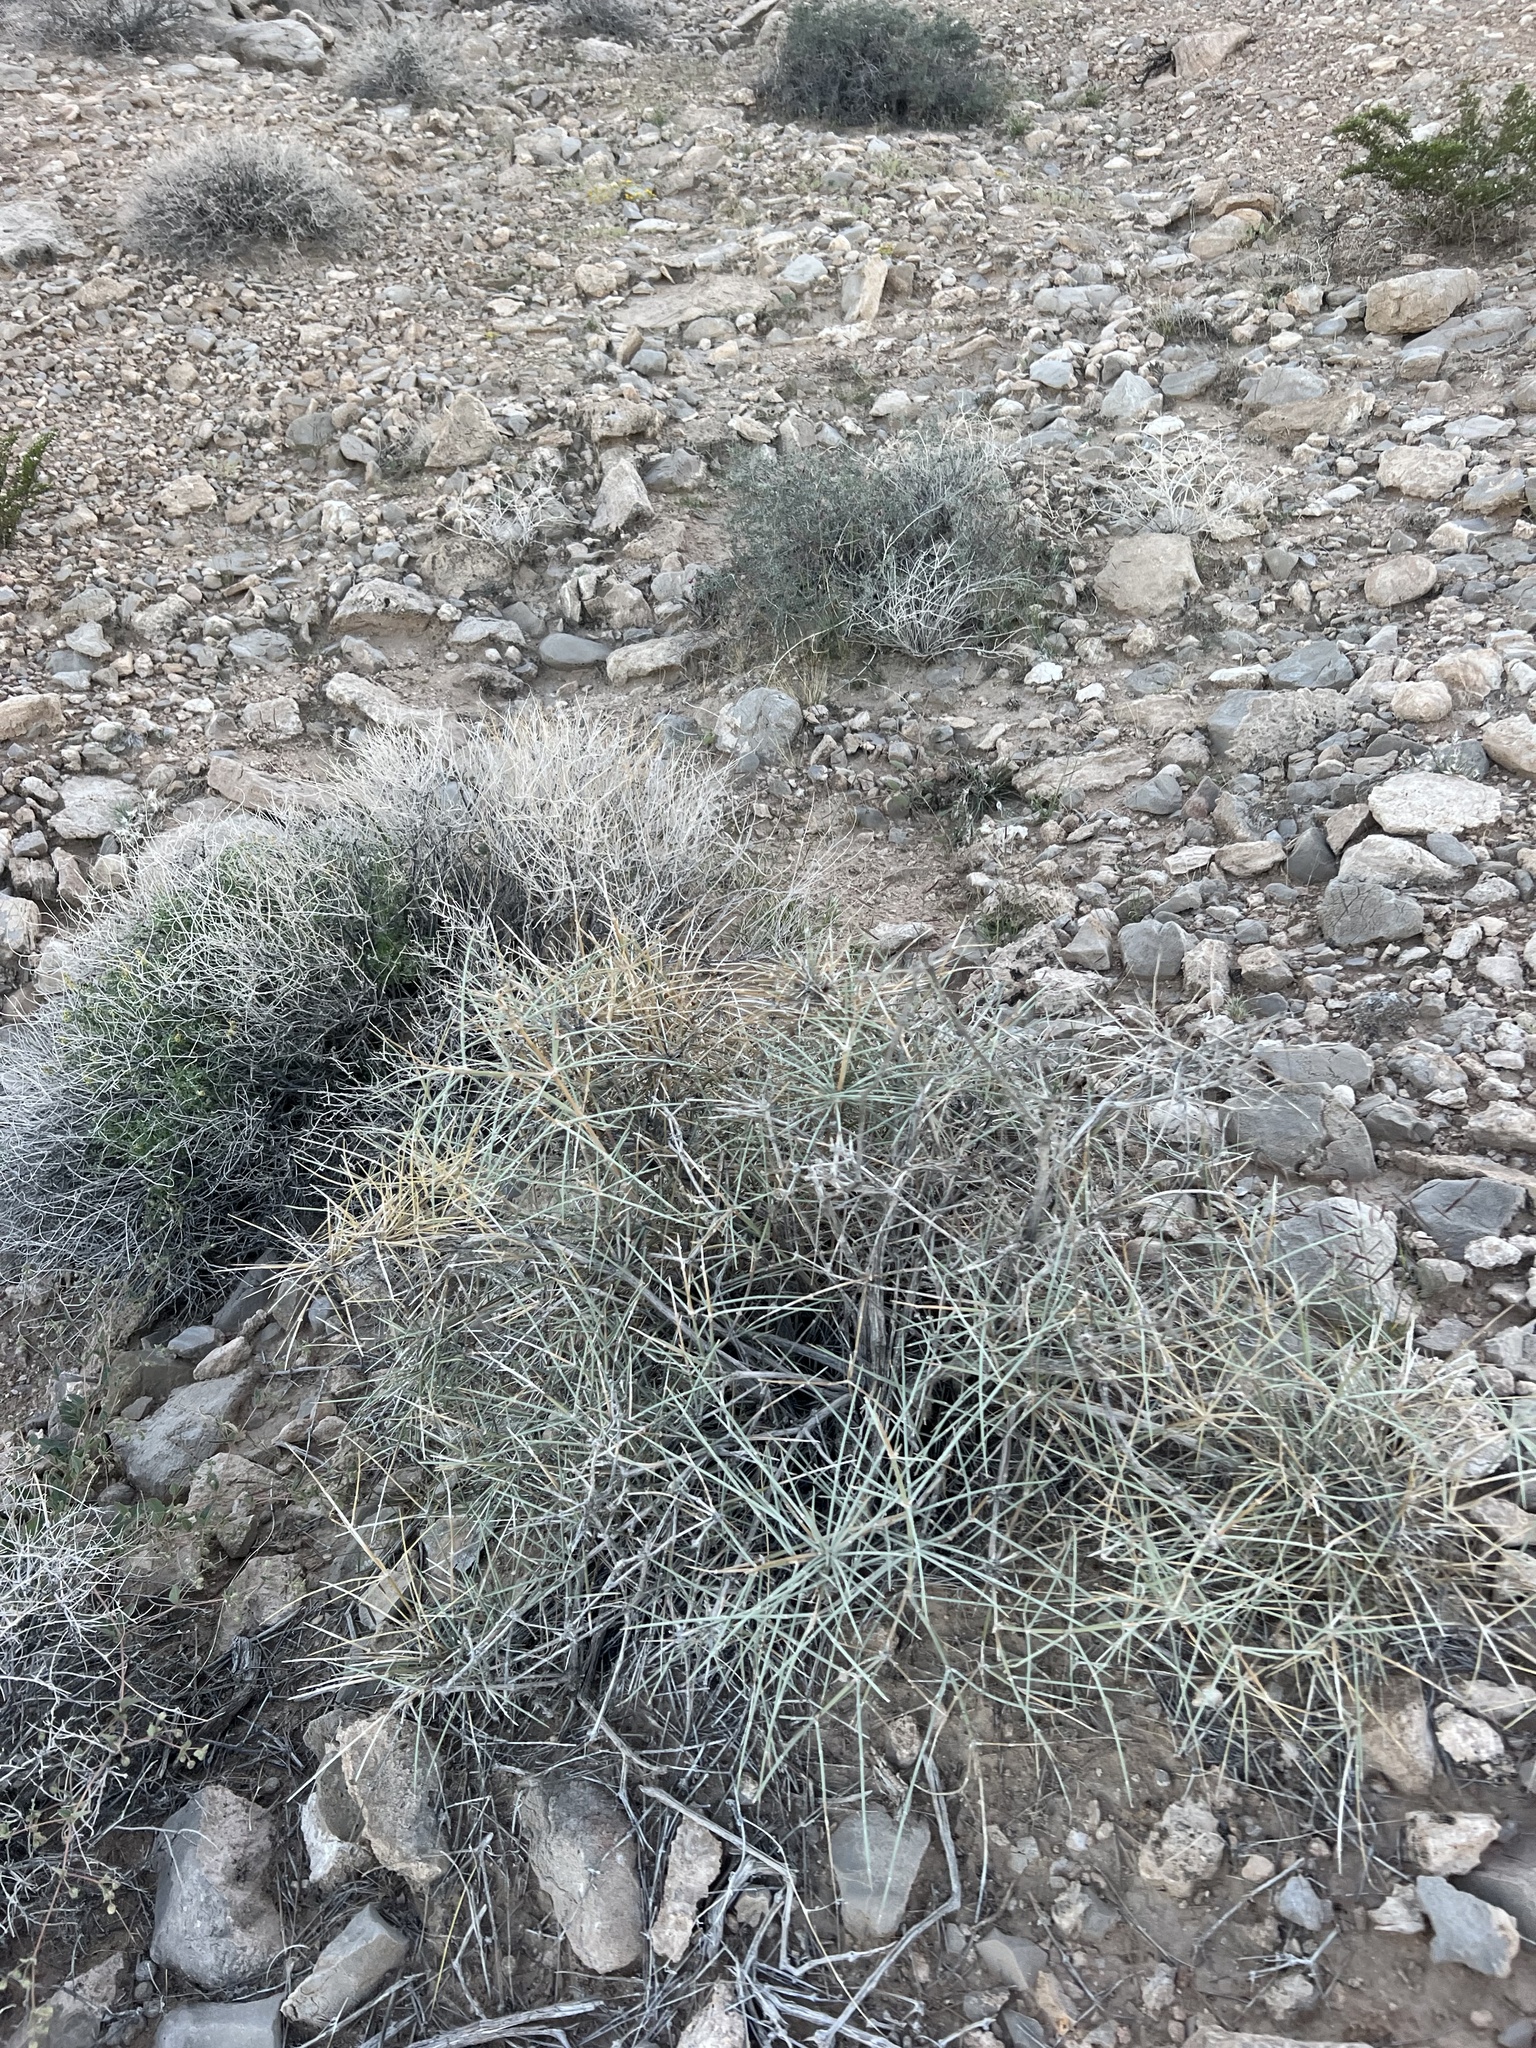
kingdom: Plantae
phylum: Tracheophyta
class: Gnetopsida
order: Ephedrales
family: Ephedraceae
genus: Ephedra
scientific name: Ephedra nevadensis
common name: Gray ephedra
